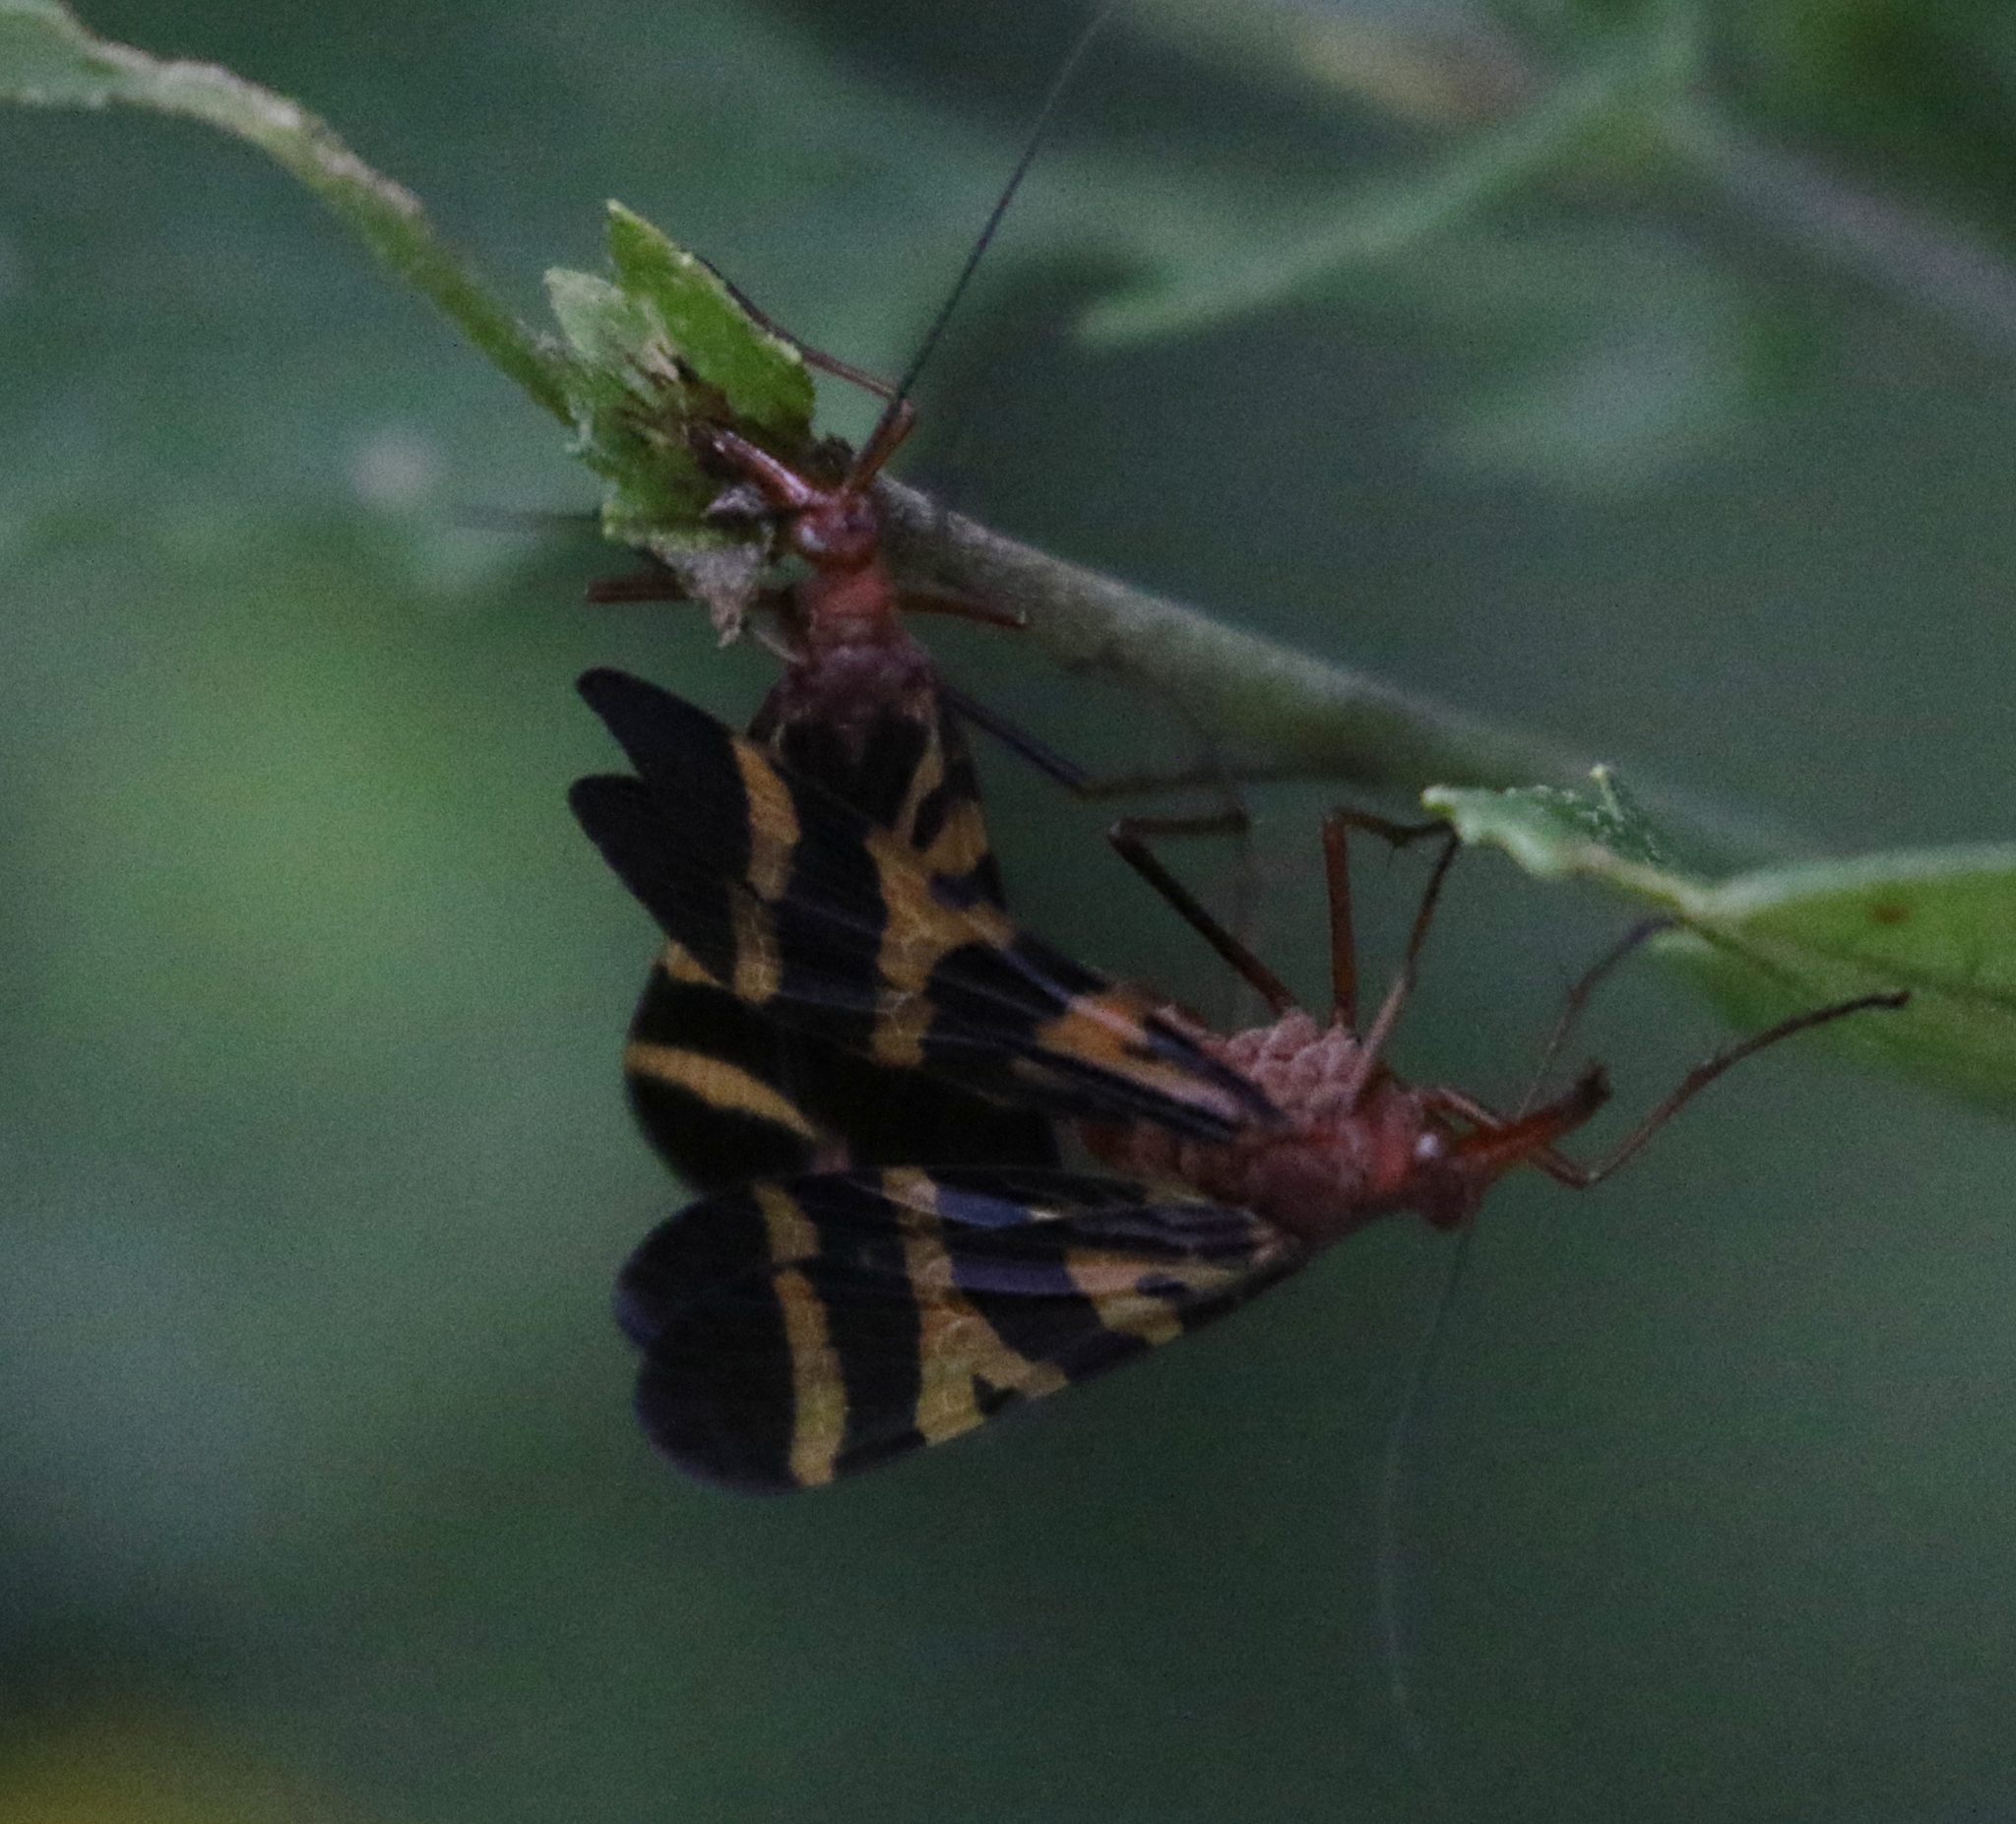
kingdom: Animalia
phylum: Arthropoda
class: Insecta
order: Mecoptera
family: Panorpidae
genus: Panorpa
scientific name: Panorpa nuptialis
